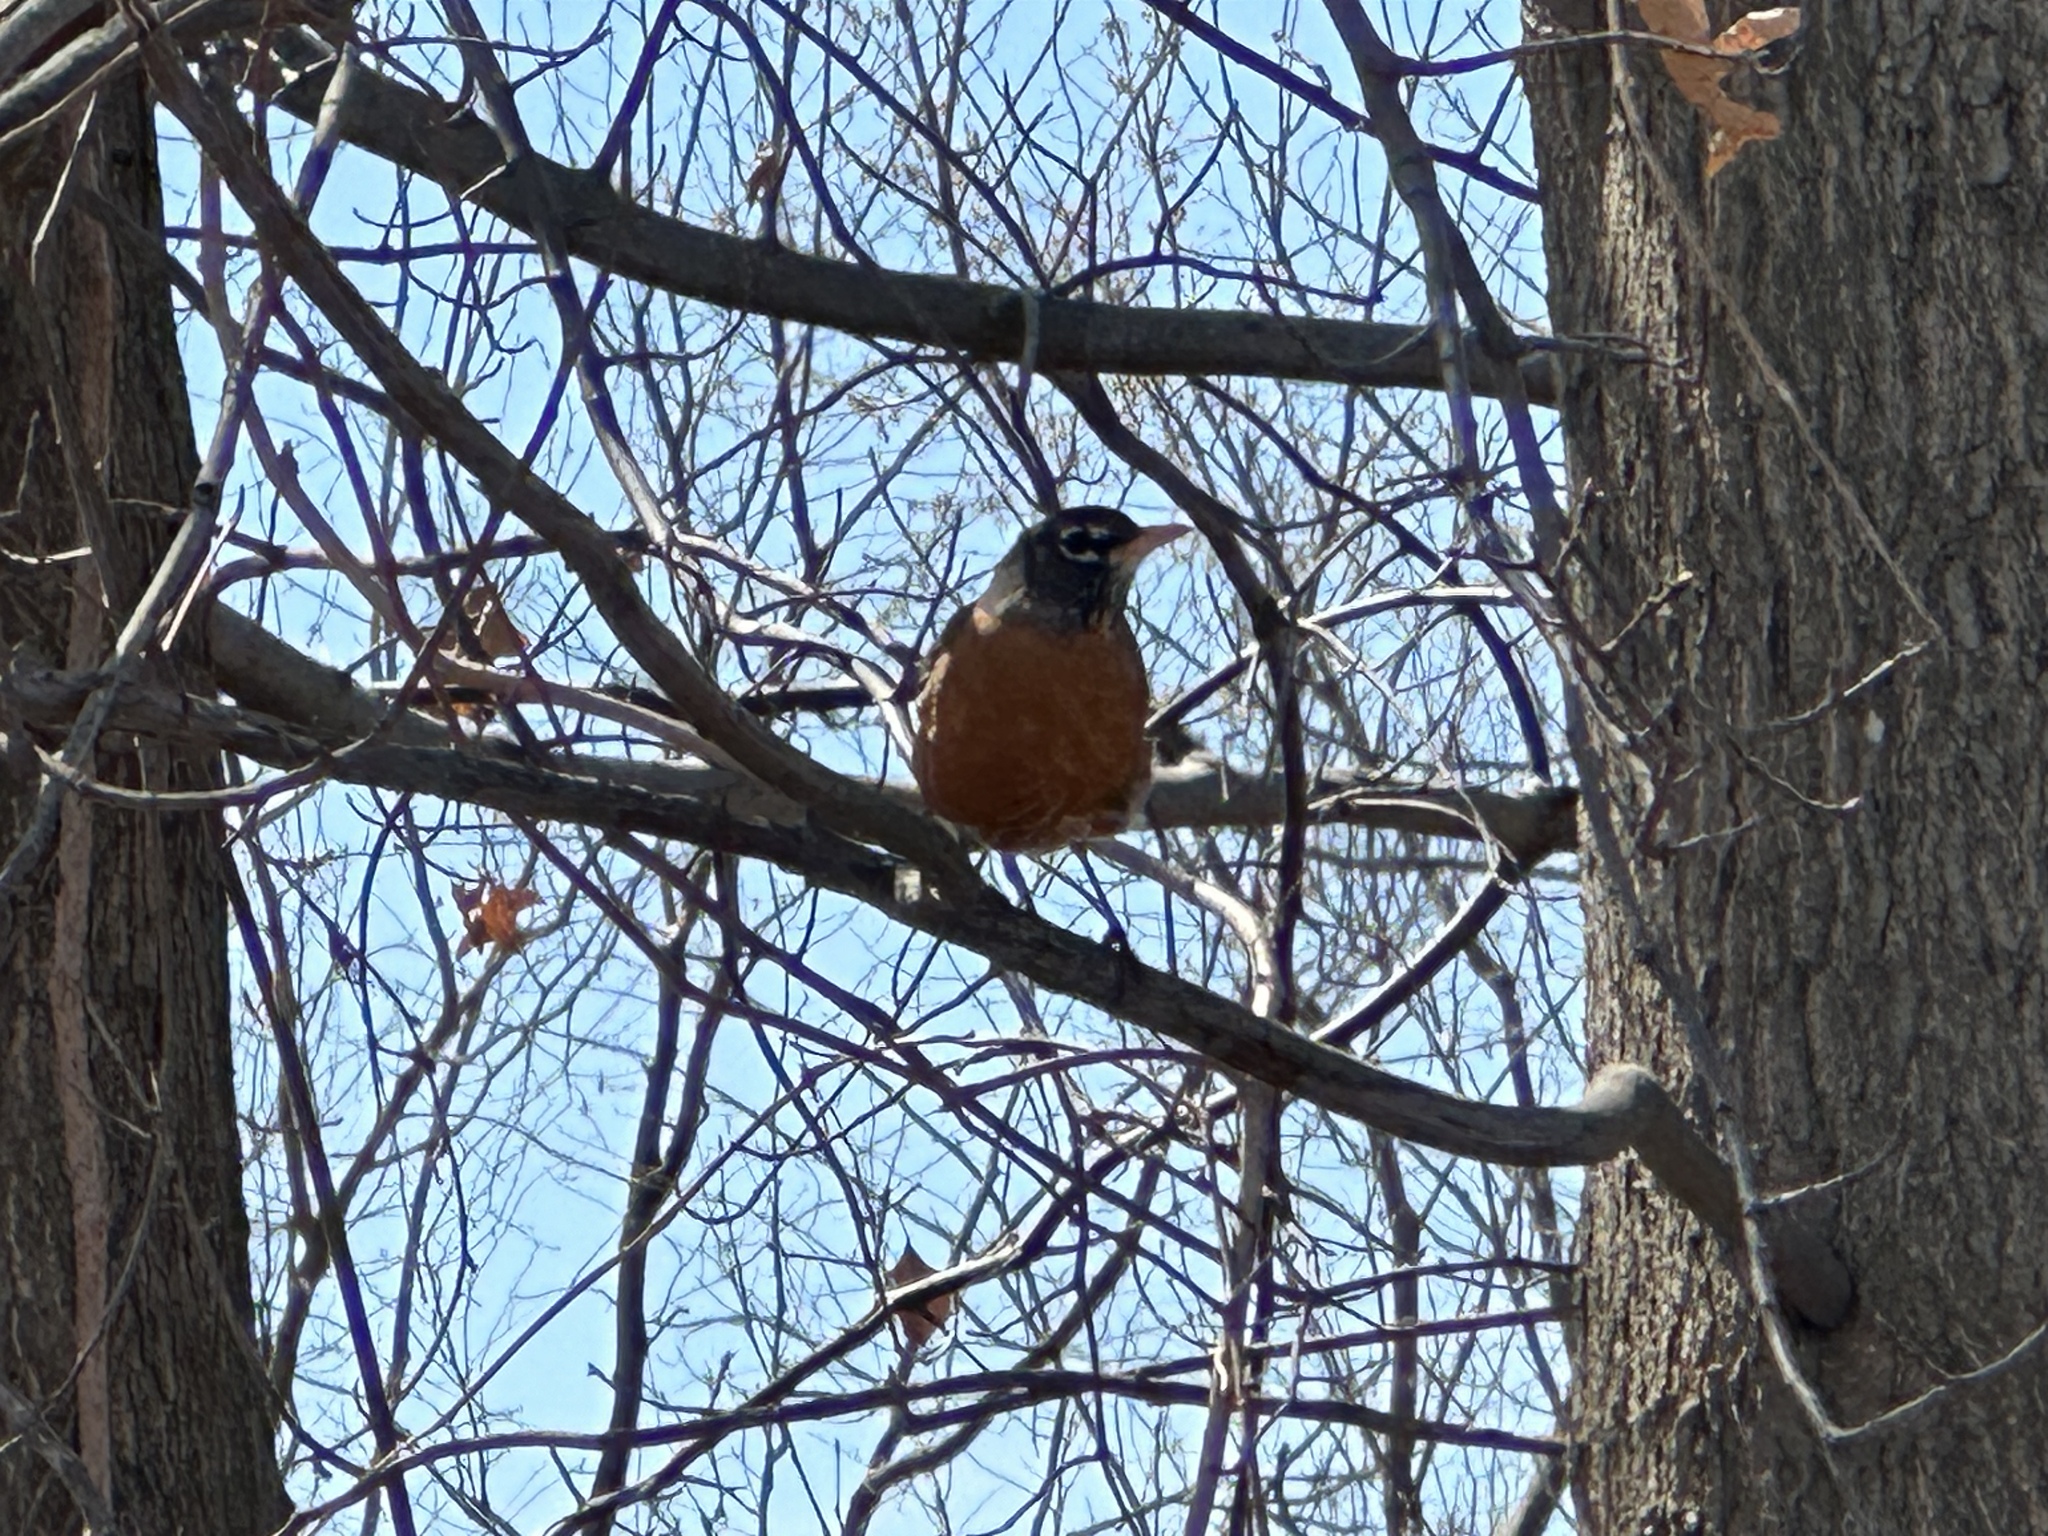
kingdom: Animalia
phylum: Chordata
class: Aves
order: Passeriformes
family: Turdidae
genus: Turdus
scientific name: Turdus migratorius
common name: American robin
